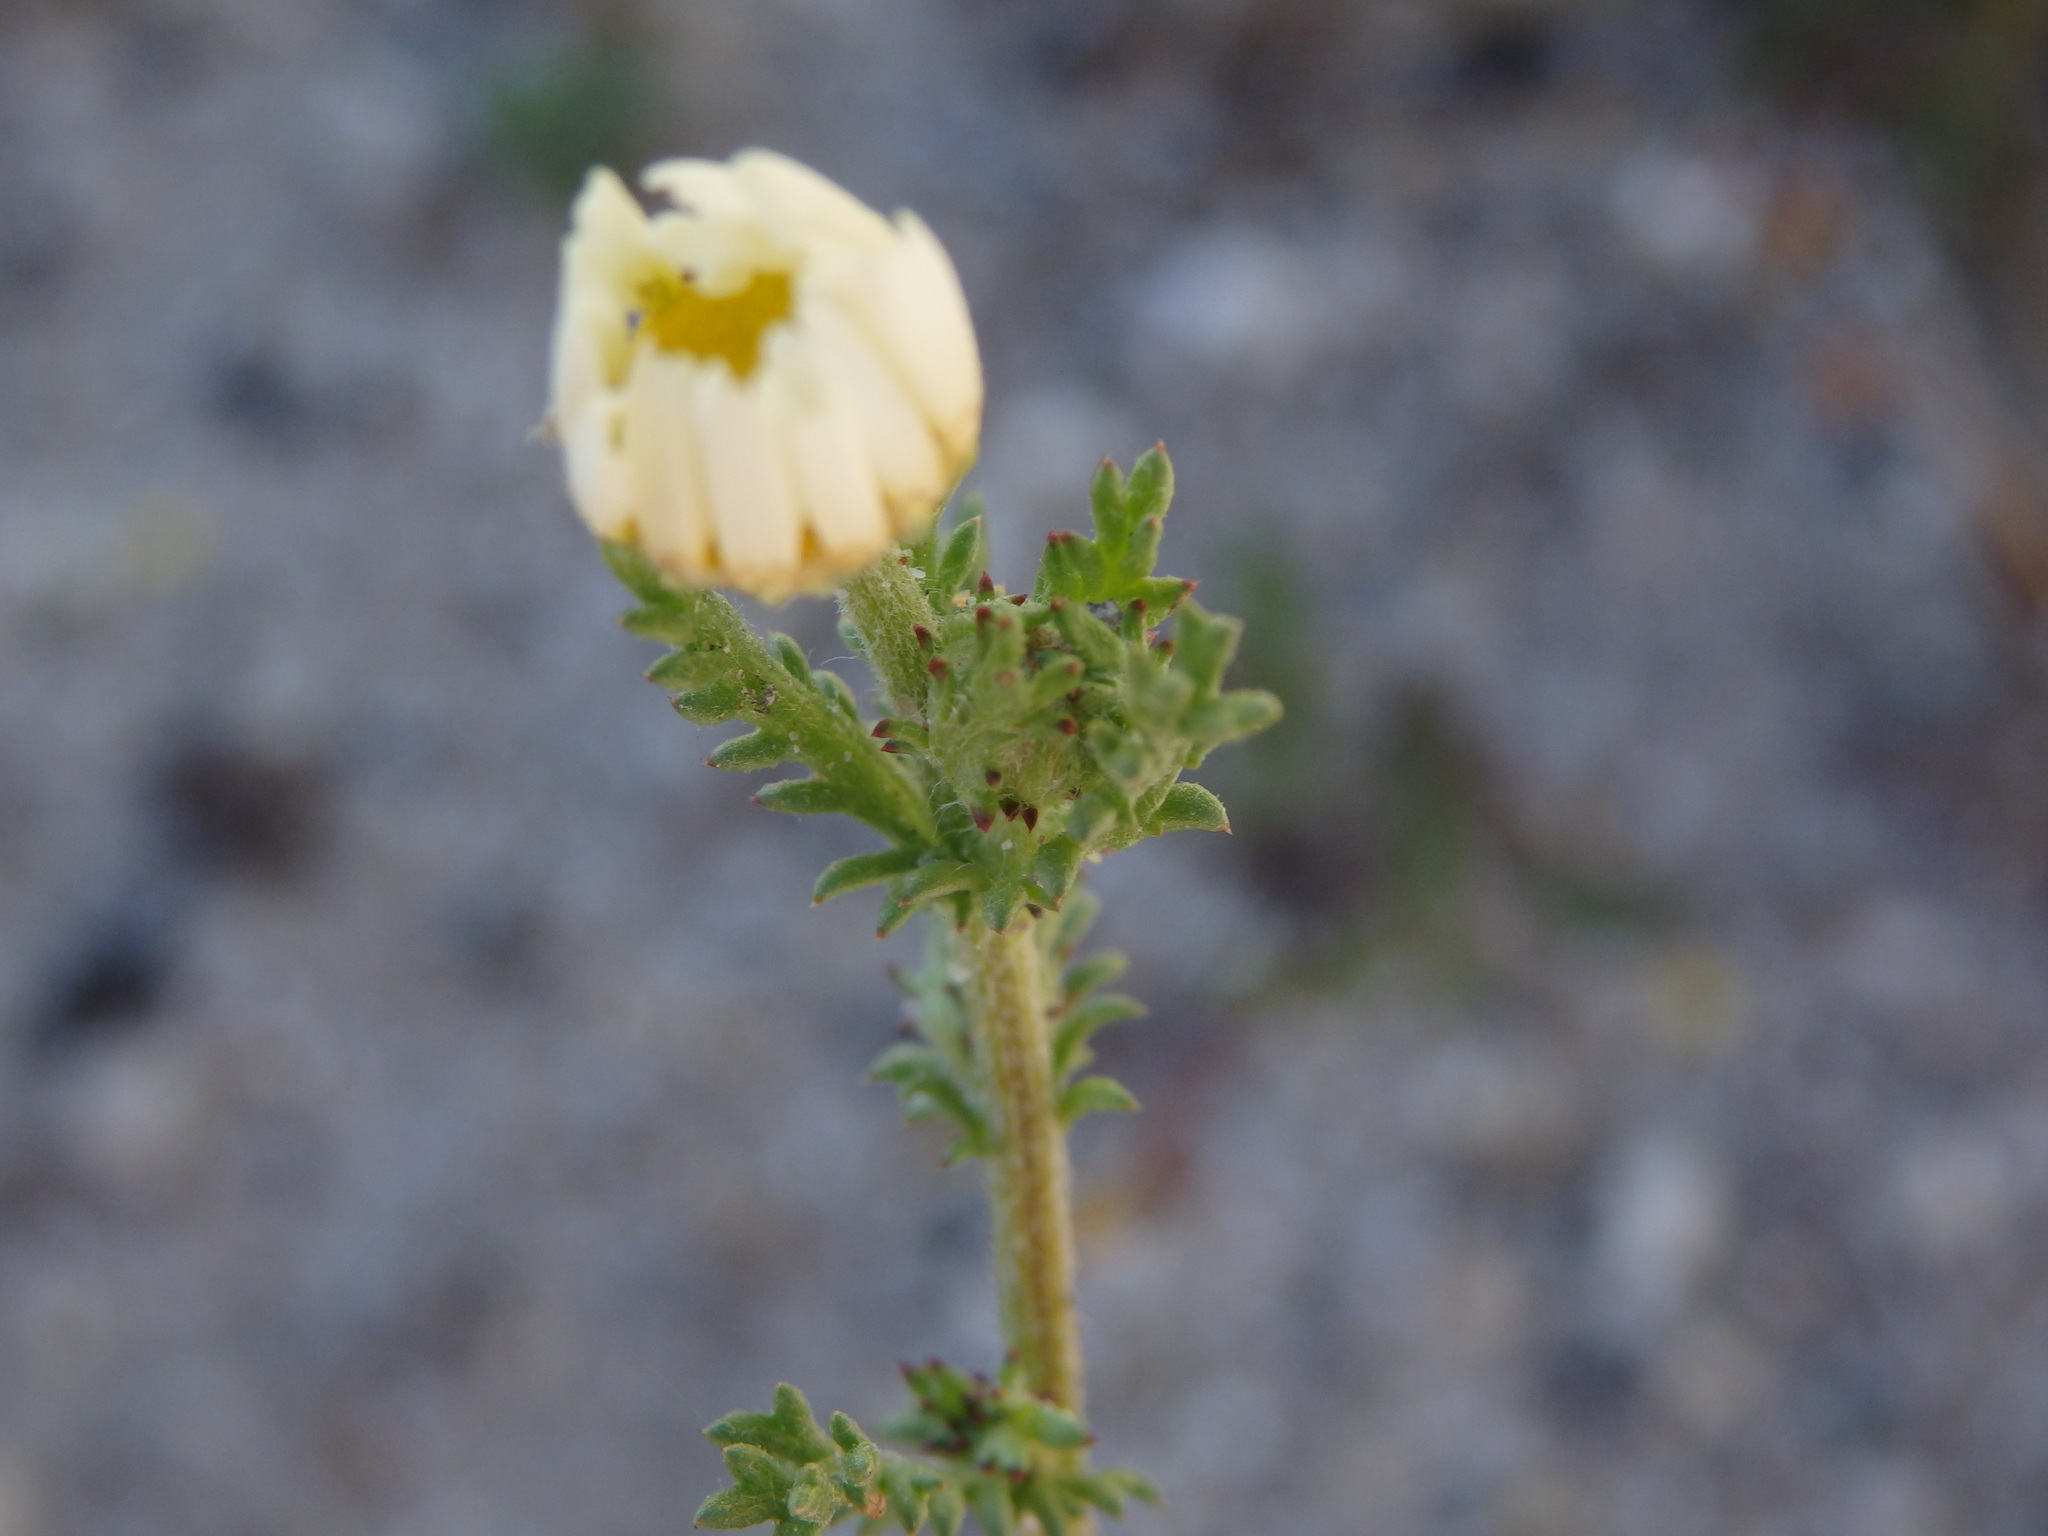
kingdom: Plantae
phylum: Tracheophyta
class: Magnoliopsida
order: Asterales
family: Asteraceae
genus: Anthemis
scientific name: Anthemis cotula
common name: Stinking chamomile
